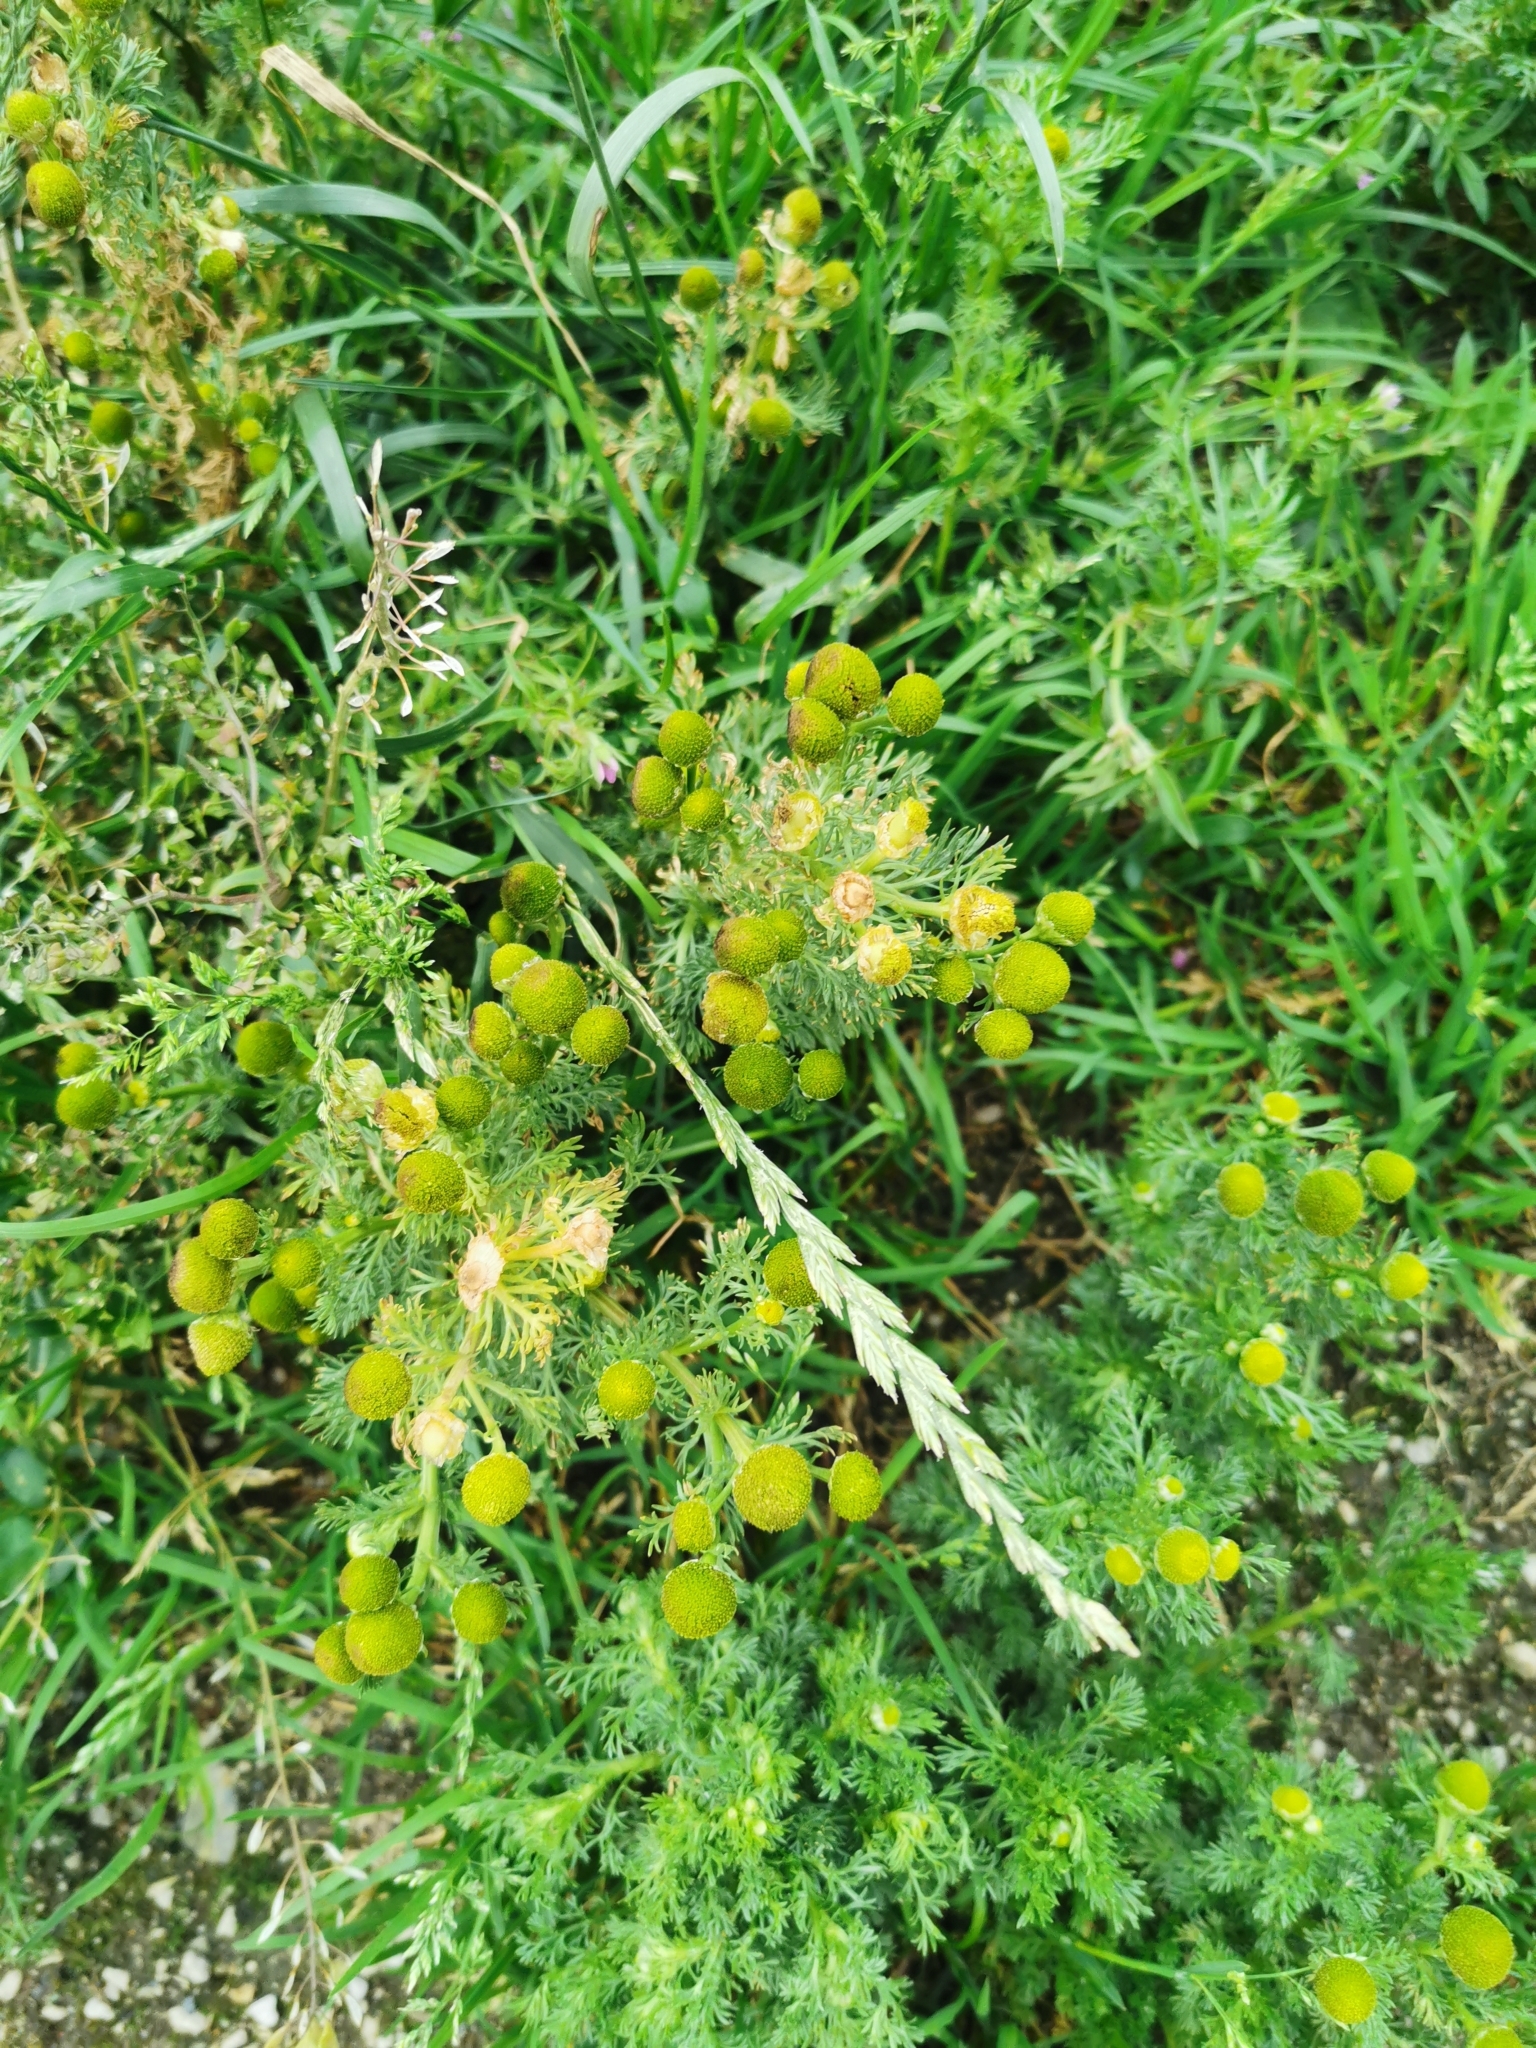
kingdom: Plantae
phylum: Tracheophyta
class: Magnoliopsida
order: Asterales
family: Asteraceae
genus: Matricaria
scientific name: Matricaria discoidea
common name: Disc mayweed
